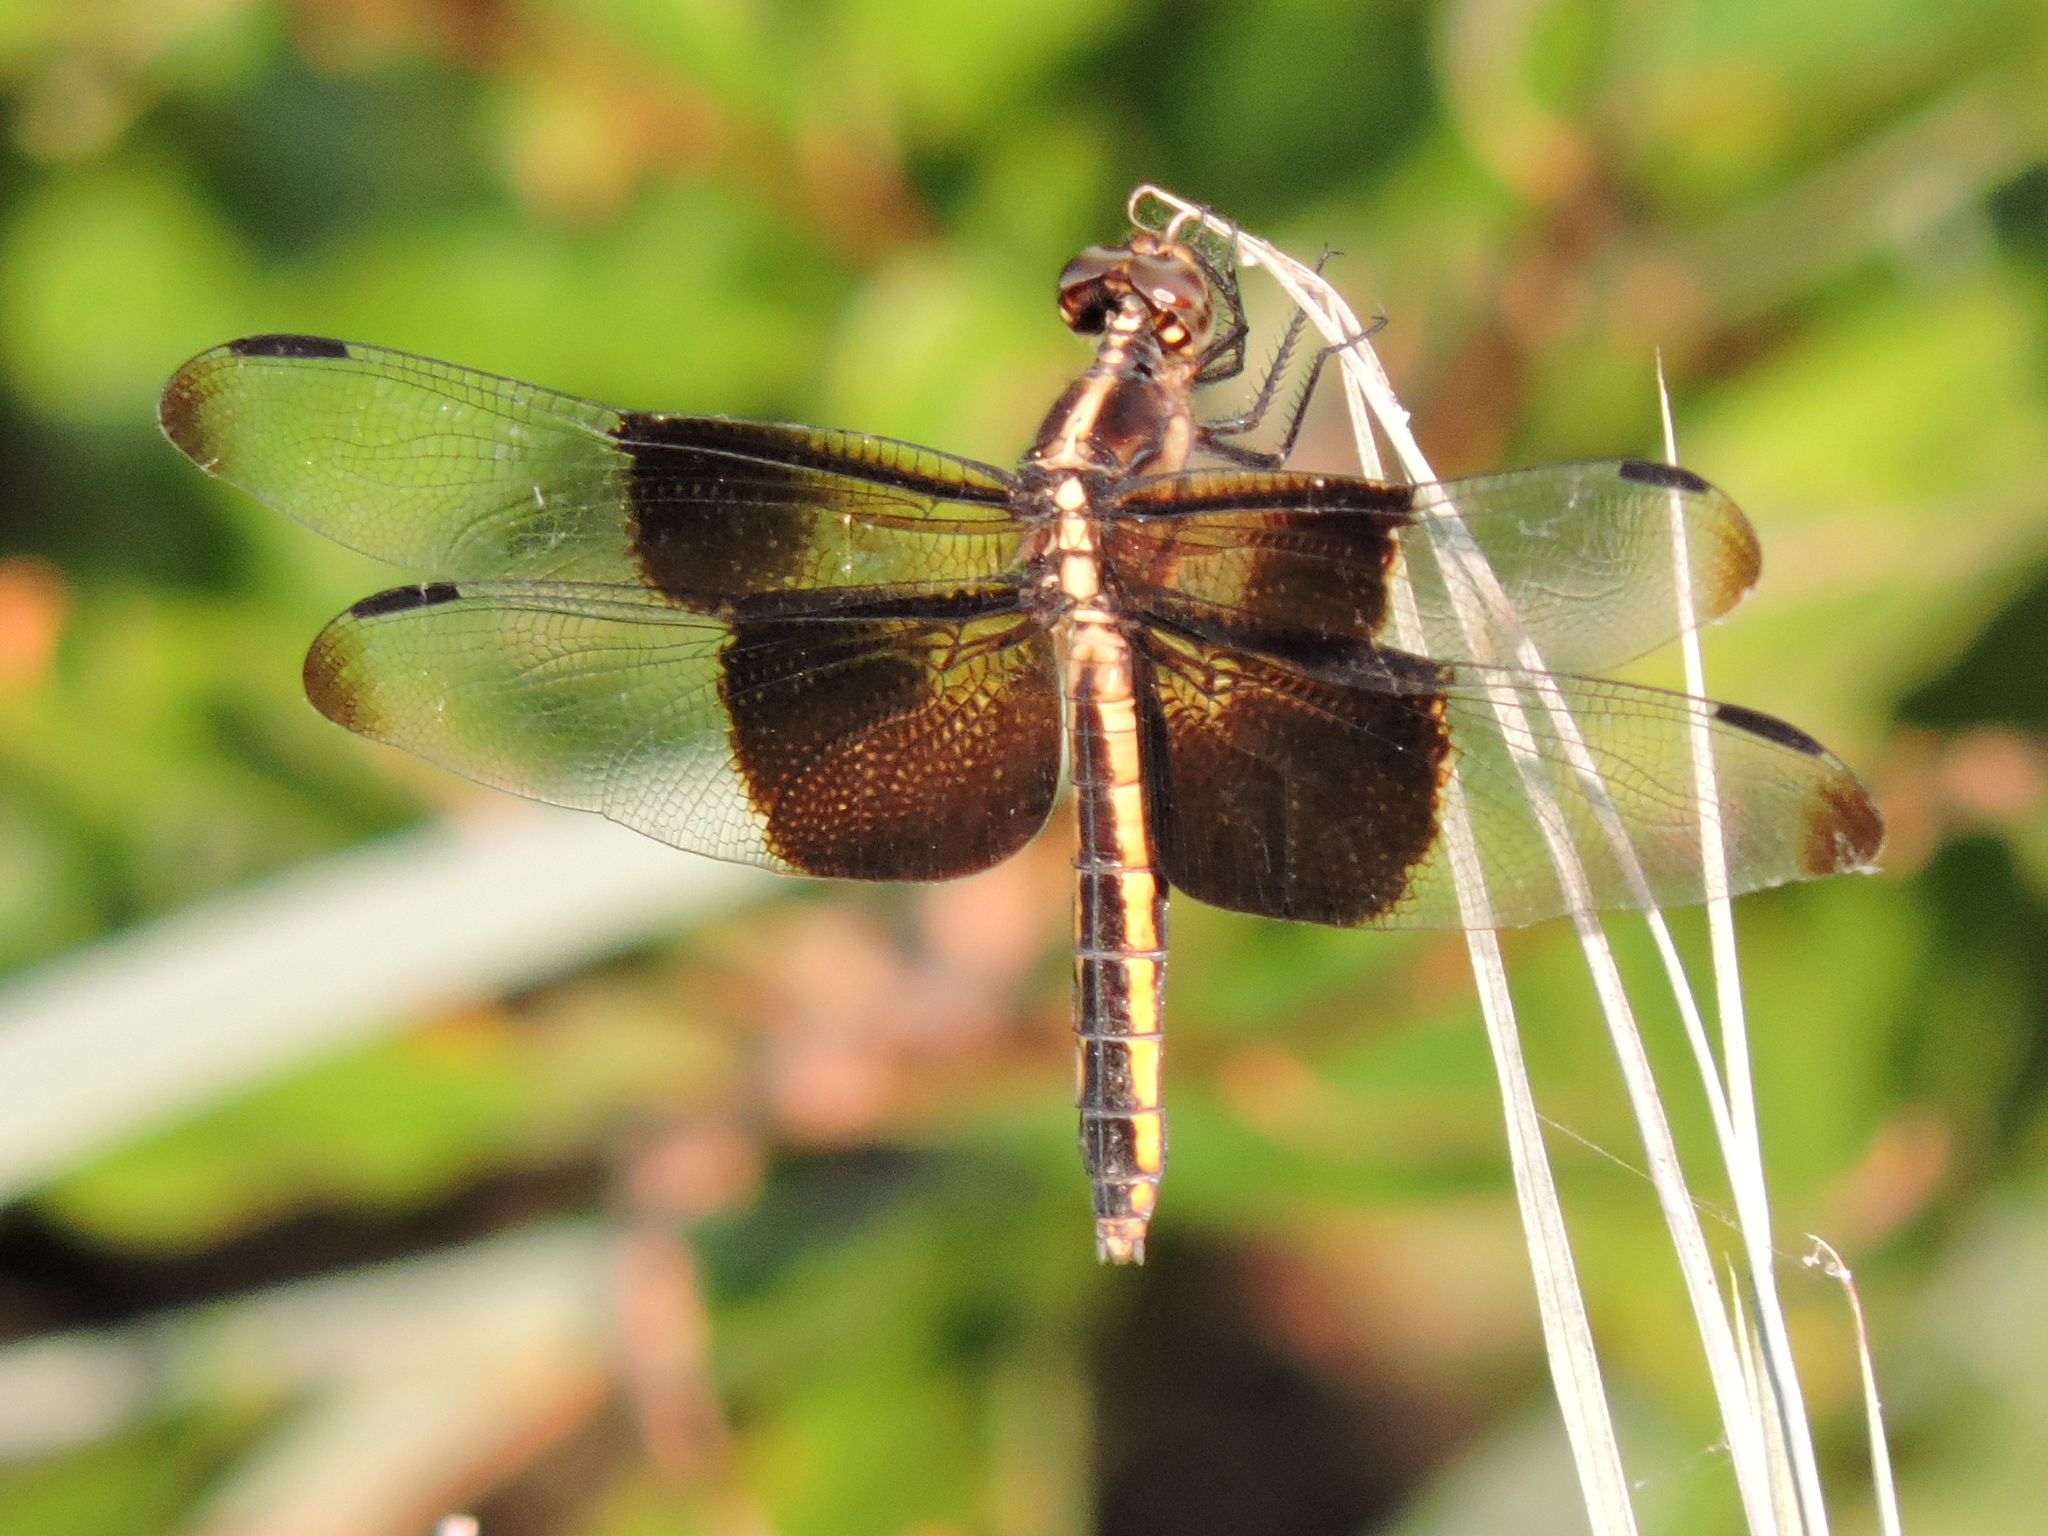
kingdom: Animalia
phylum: Arthropoda
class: Insecta
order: Odonata
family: Libellulidae
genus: Libellula
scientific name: Libellula luctuosa
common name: Widow skimmer
